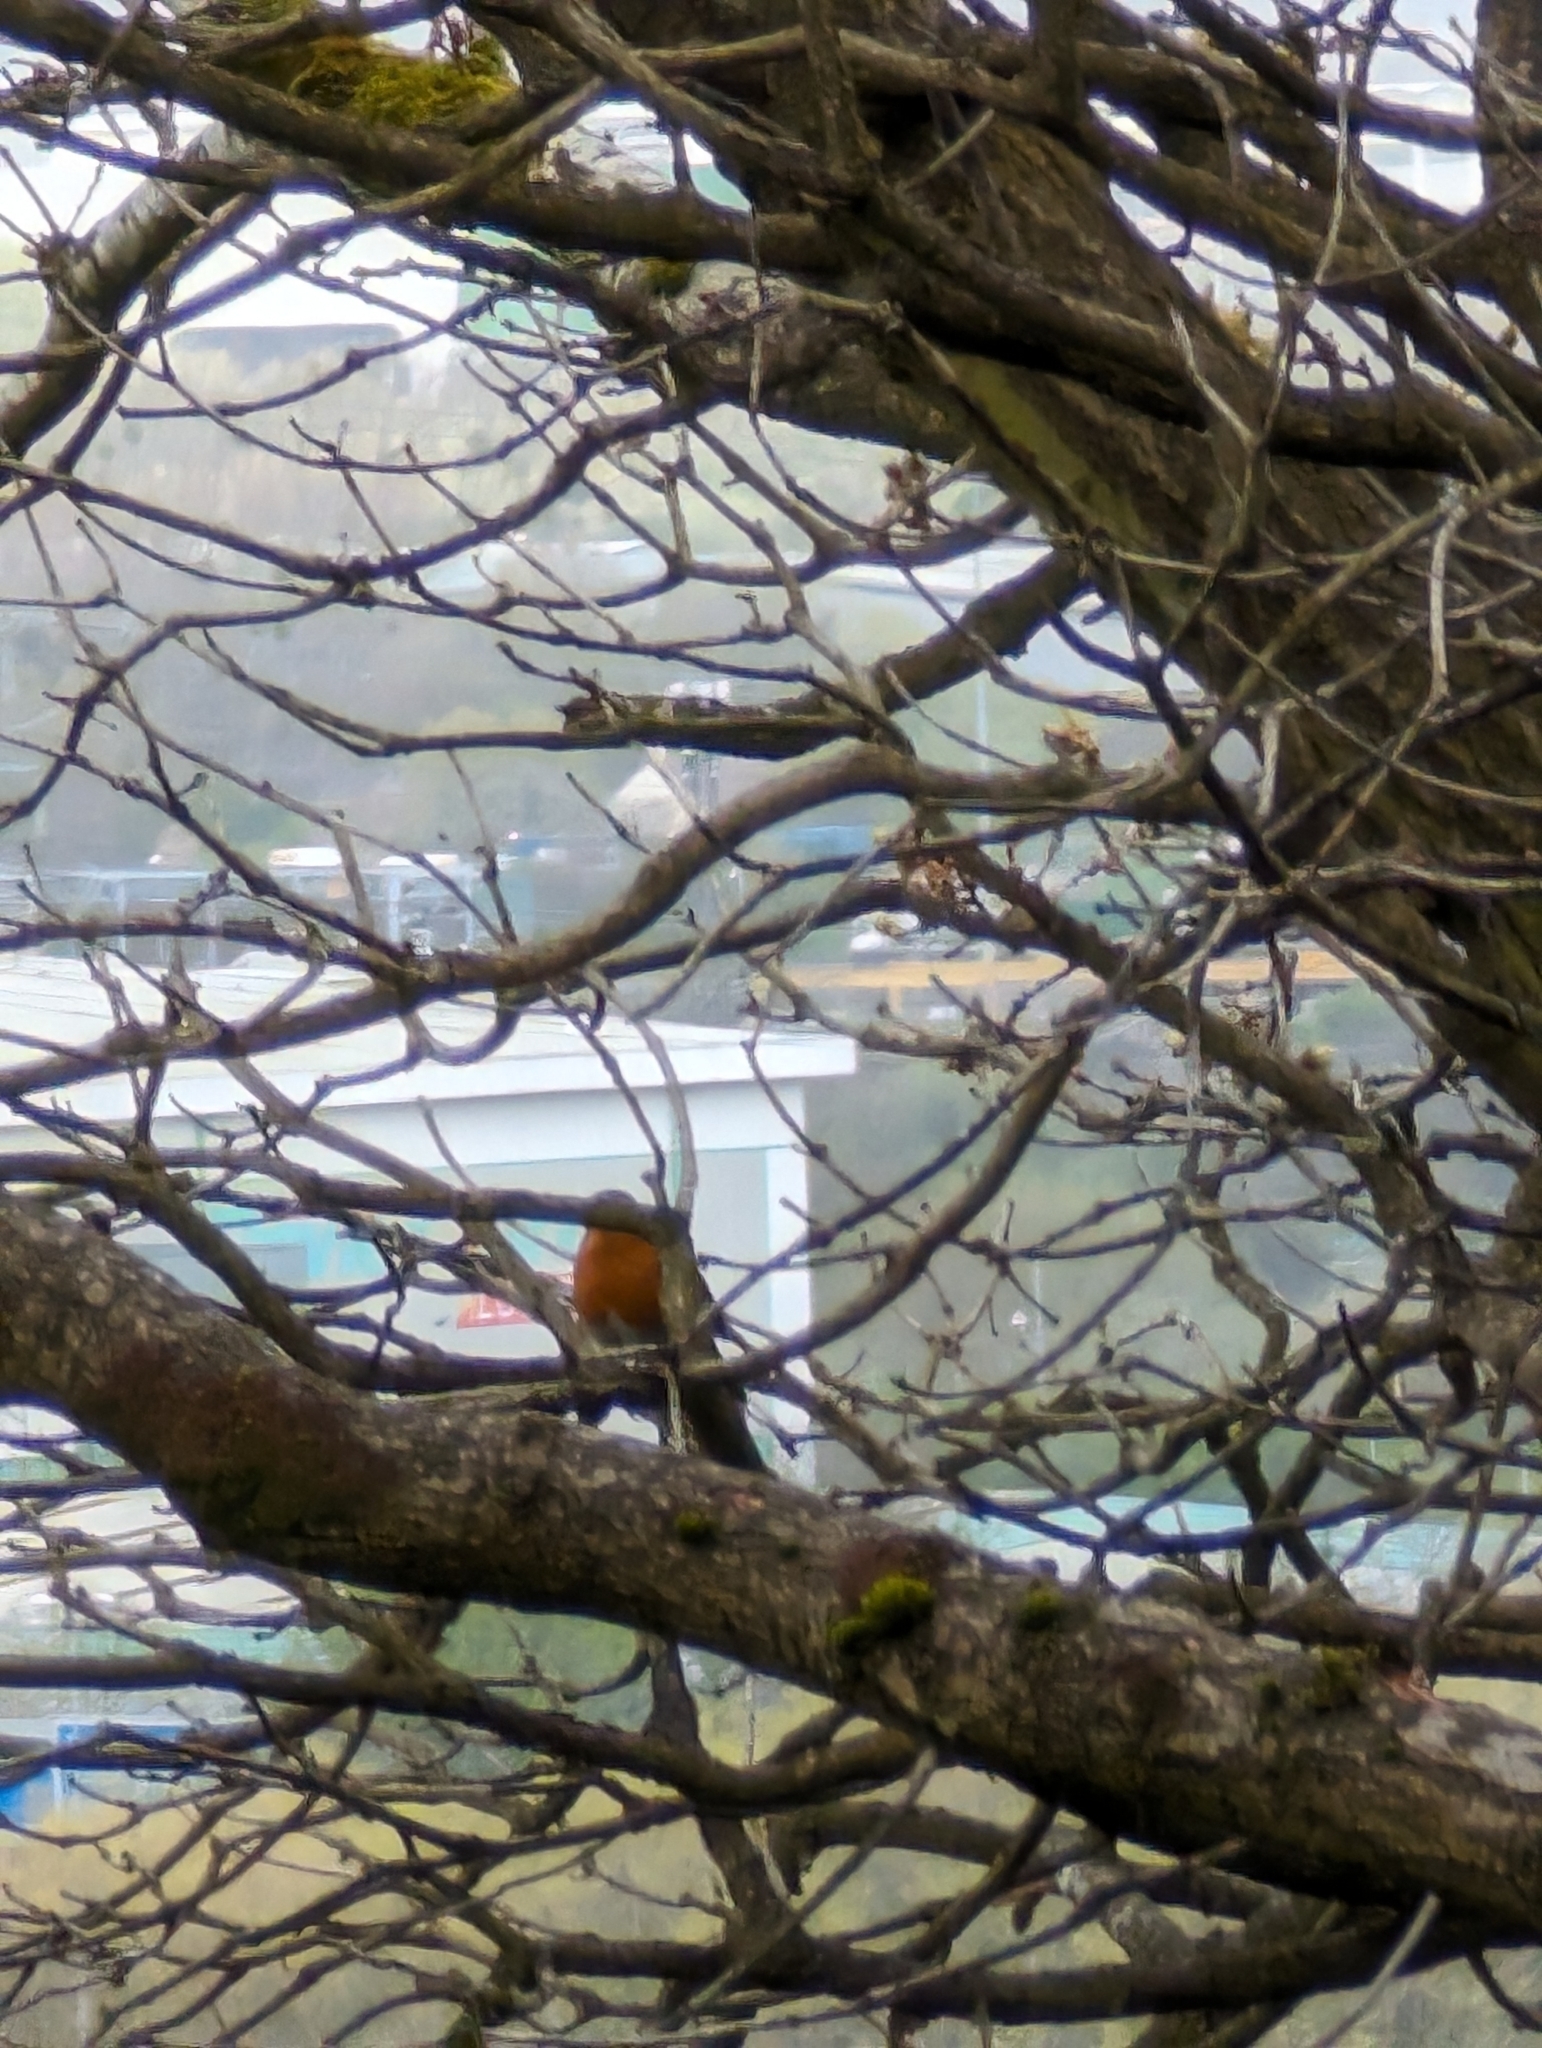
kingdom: Animalia
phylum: Chordata
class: Aves
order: Passeriformes
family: Muscicapidae
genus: Erithacus
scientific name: Erithacus rubecula
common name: European robin
